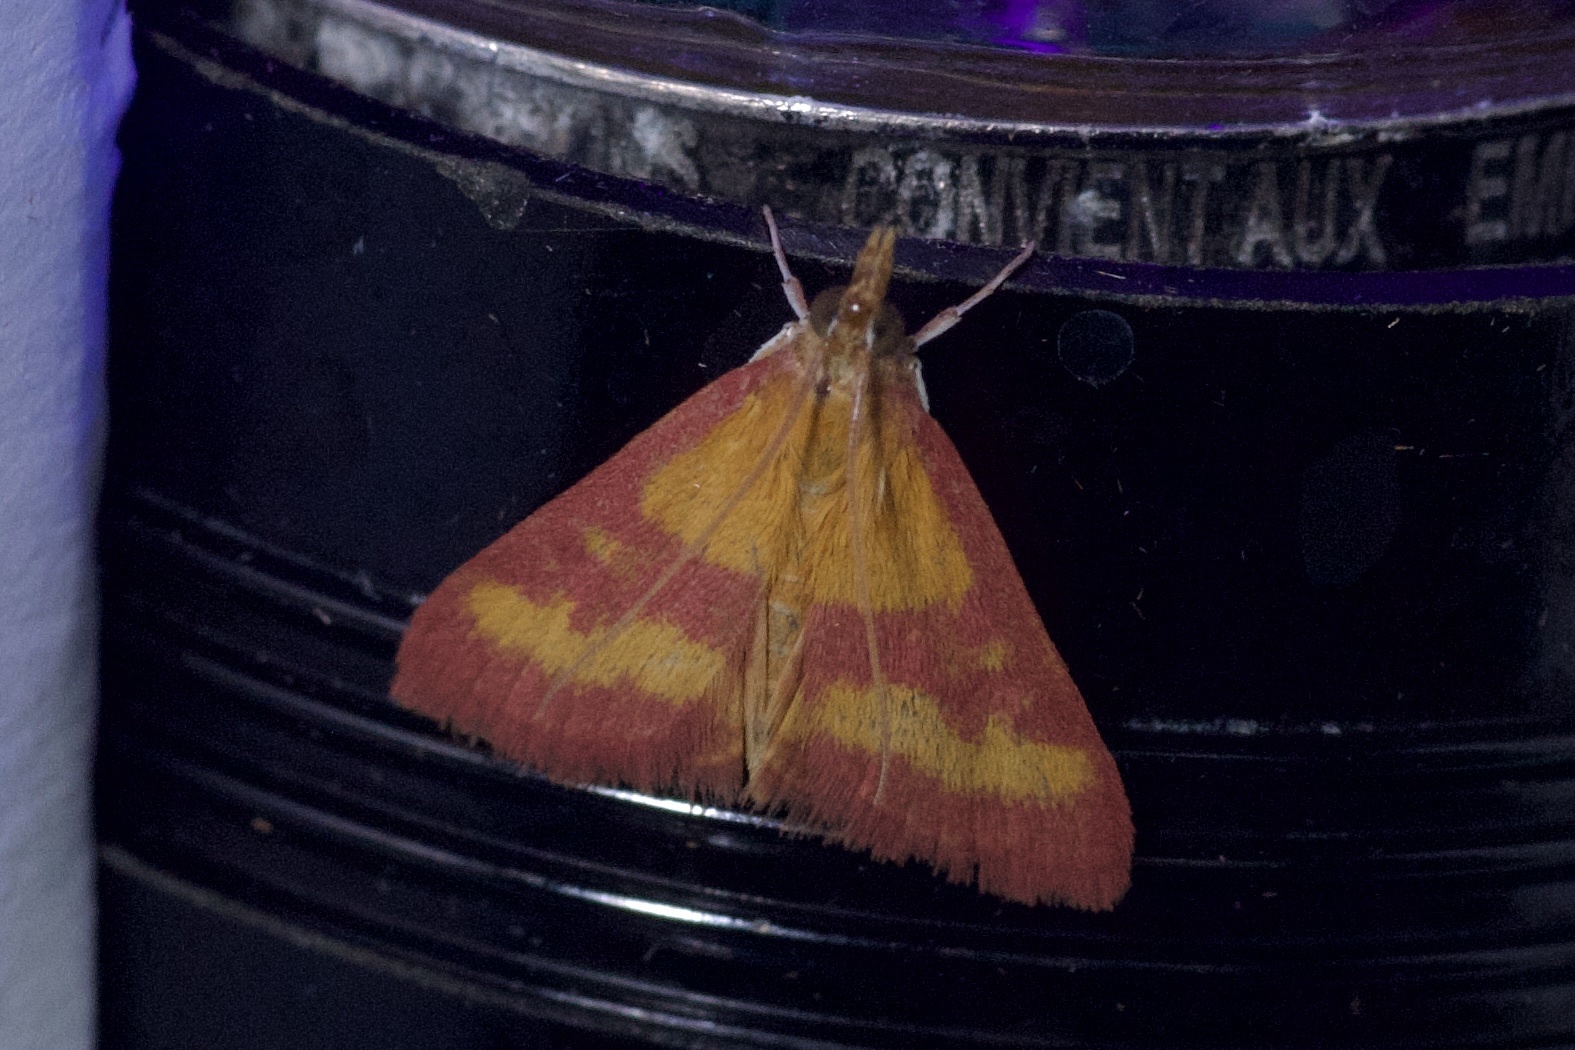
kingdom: Animalia
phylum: Arthropoda
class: Insecta
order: Lepidoptera
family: Crambidae
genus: Pyrausta
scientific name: Pyrausta laticlavia
